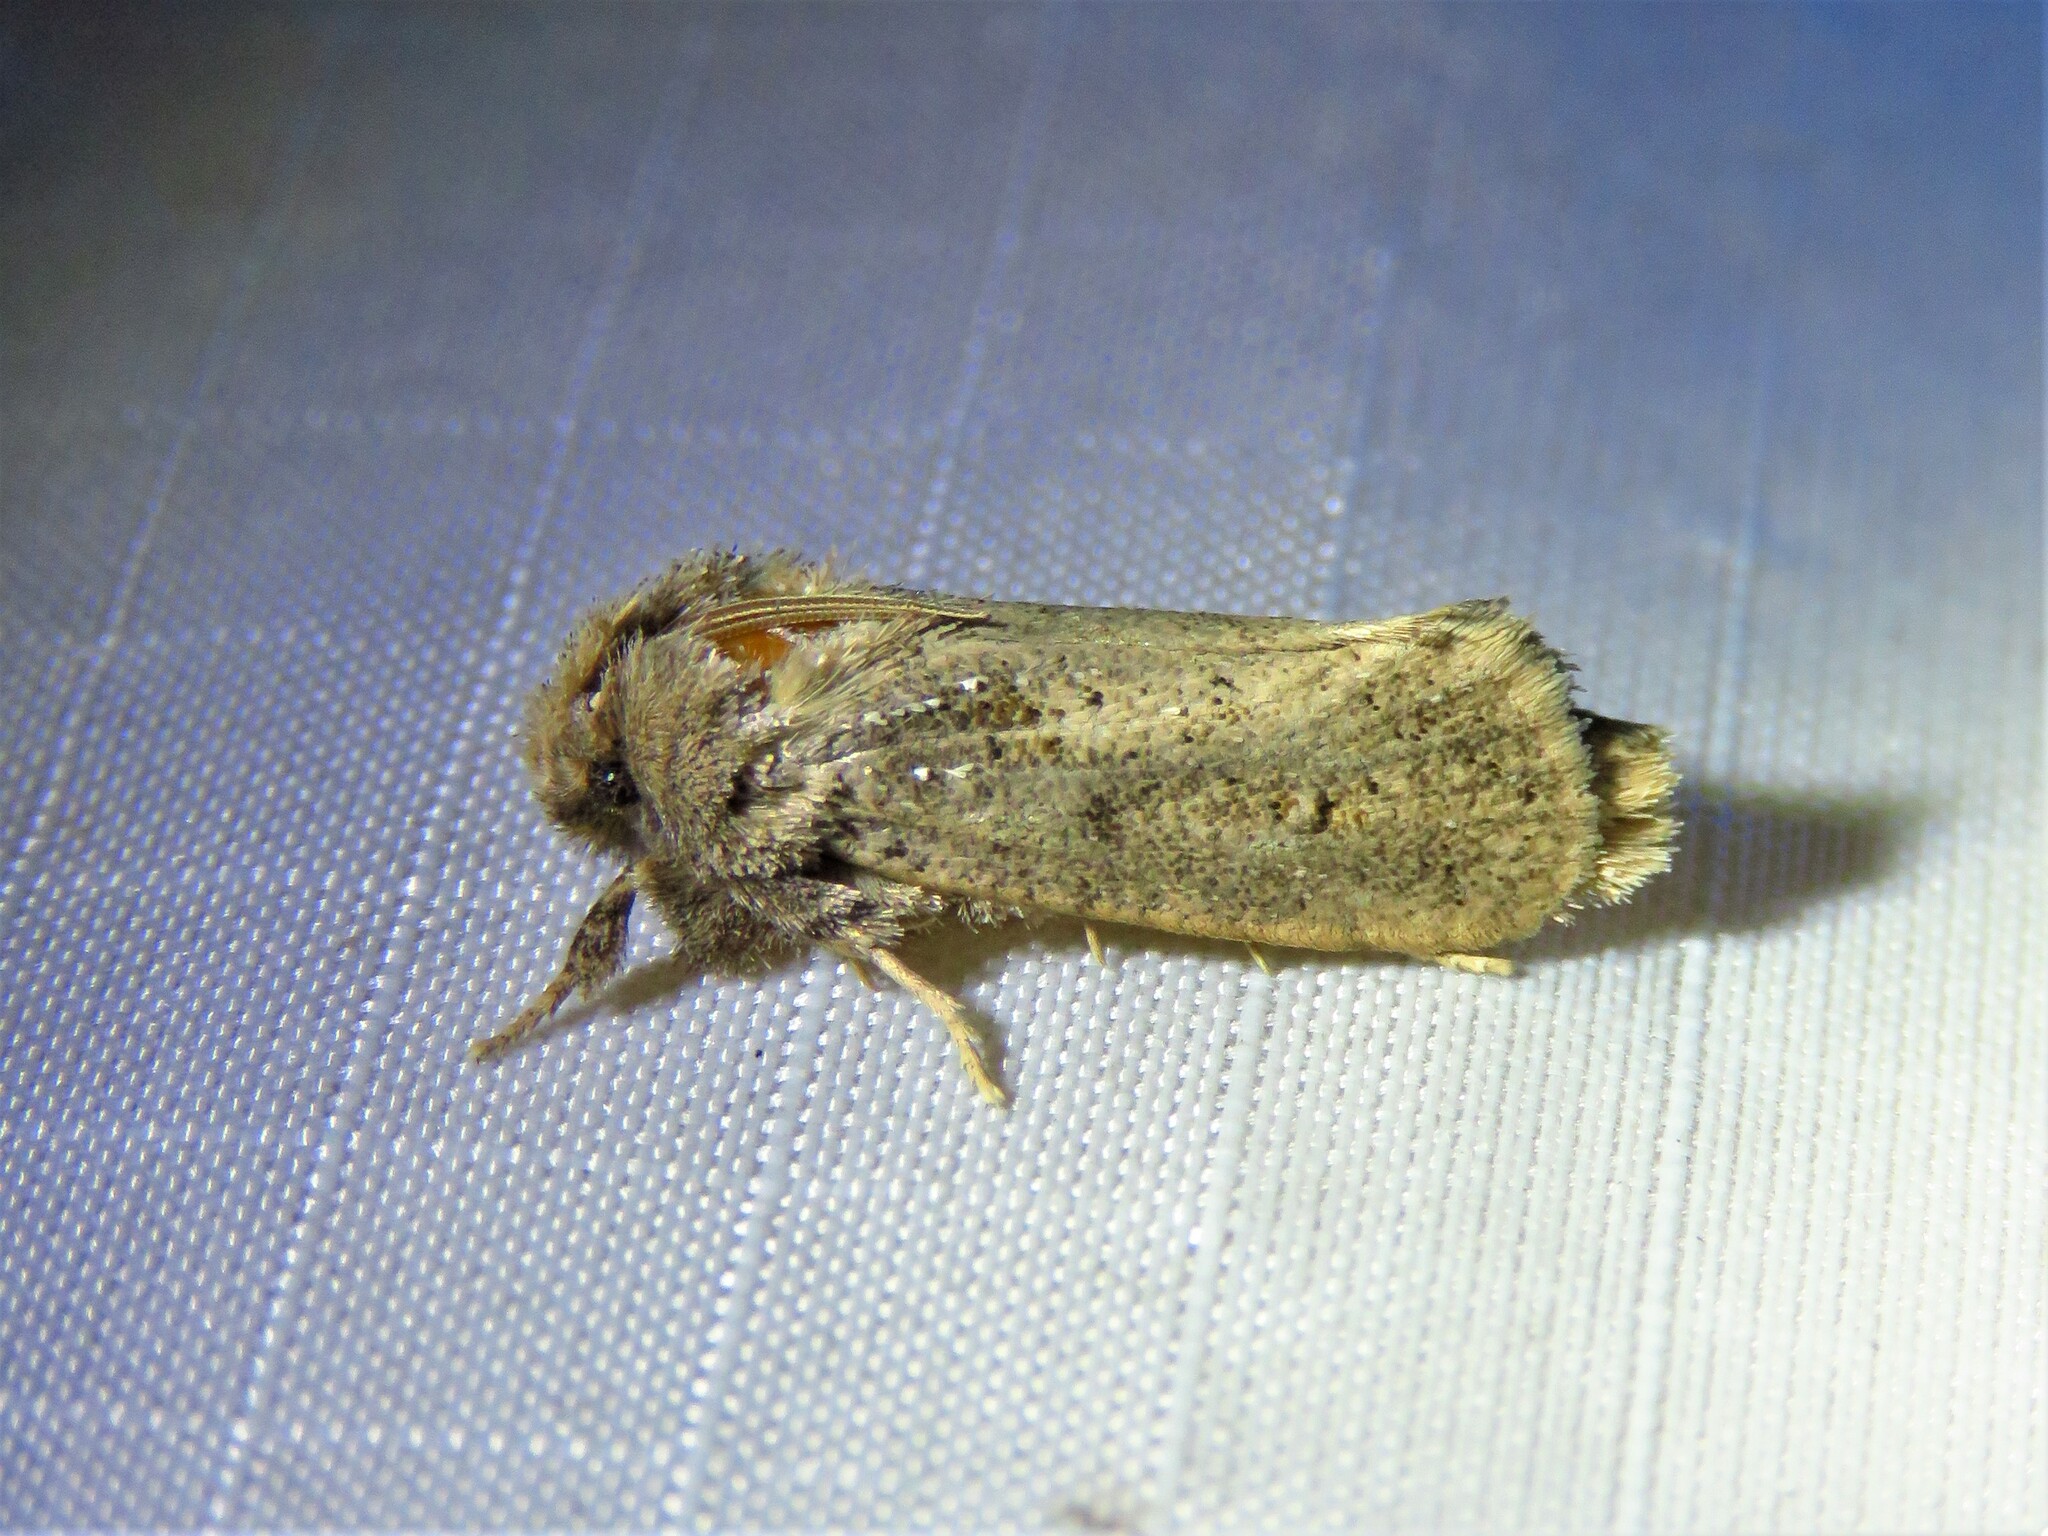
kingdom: Animalia
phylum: Arthropoda
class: Insecta
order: Lepidoptera
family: Tineidae
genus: Acrolophus
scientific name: Acrolophus arcanella
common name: Arcane grass tubeworm moth
